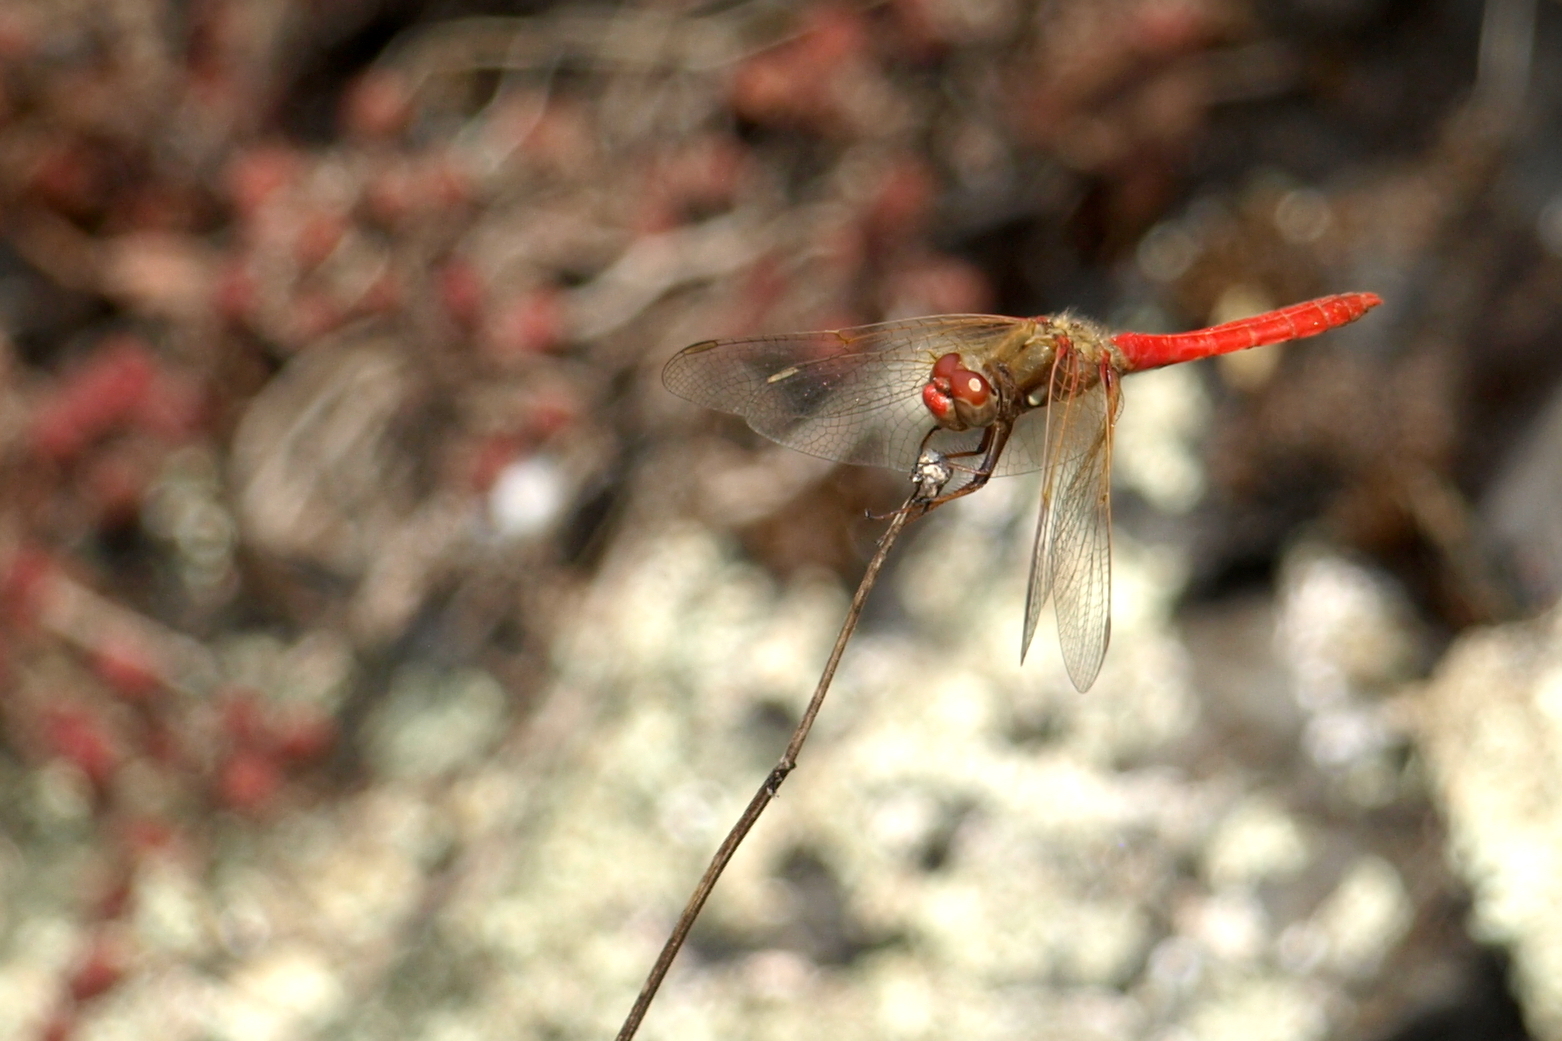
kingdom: Animalia
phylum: Arthropoda
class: Insecta
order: Odonata
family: Libellulidae
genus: Sympetrum
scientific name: Sympetrum illotum
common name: Cardinal meadowhawk
